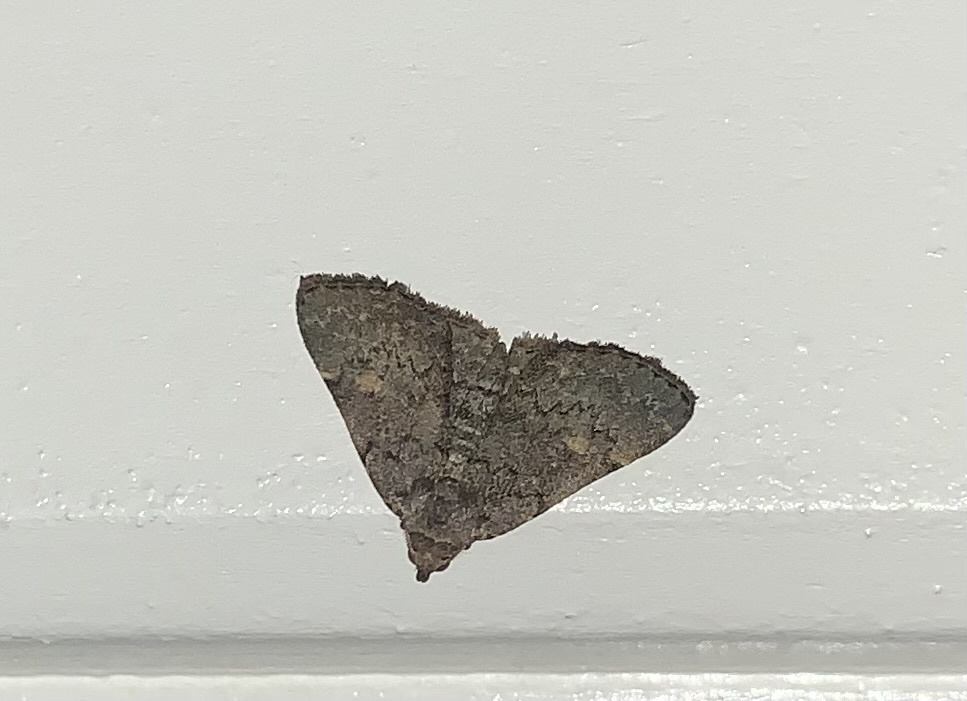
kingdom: Animalia
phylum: Arthropoda
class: Insecta
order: Lepidoptera
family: Erebidae
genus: Idia
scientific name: Idia aemula
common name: Common idia moth
